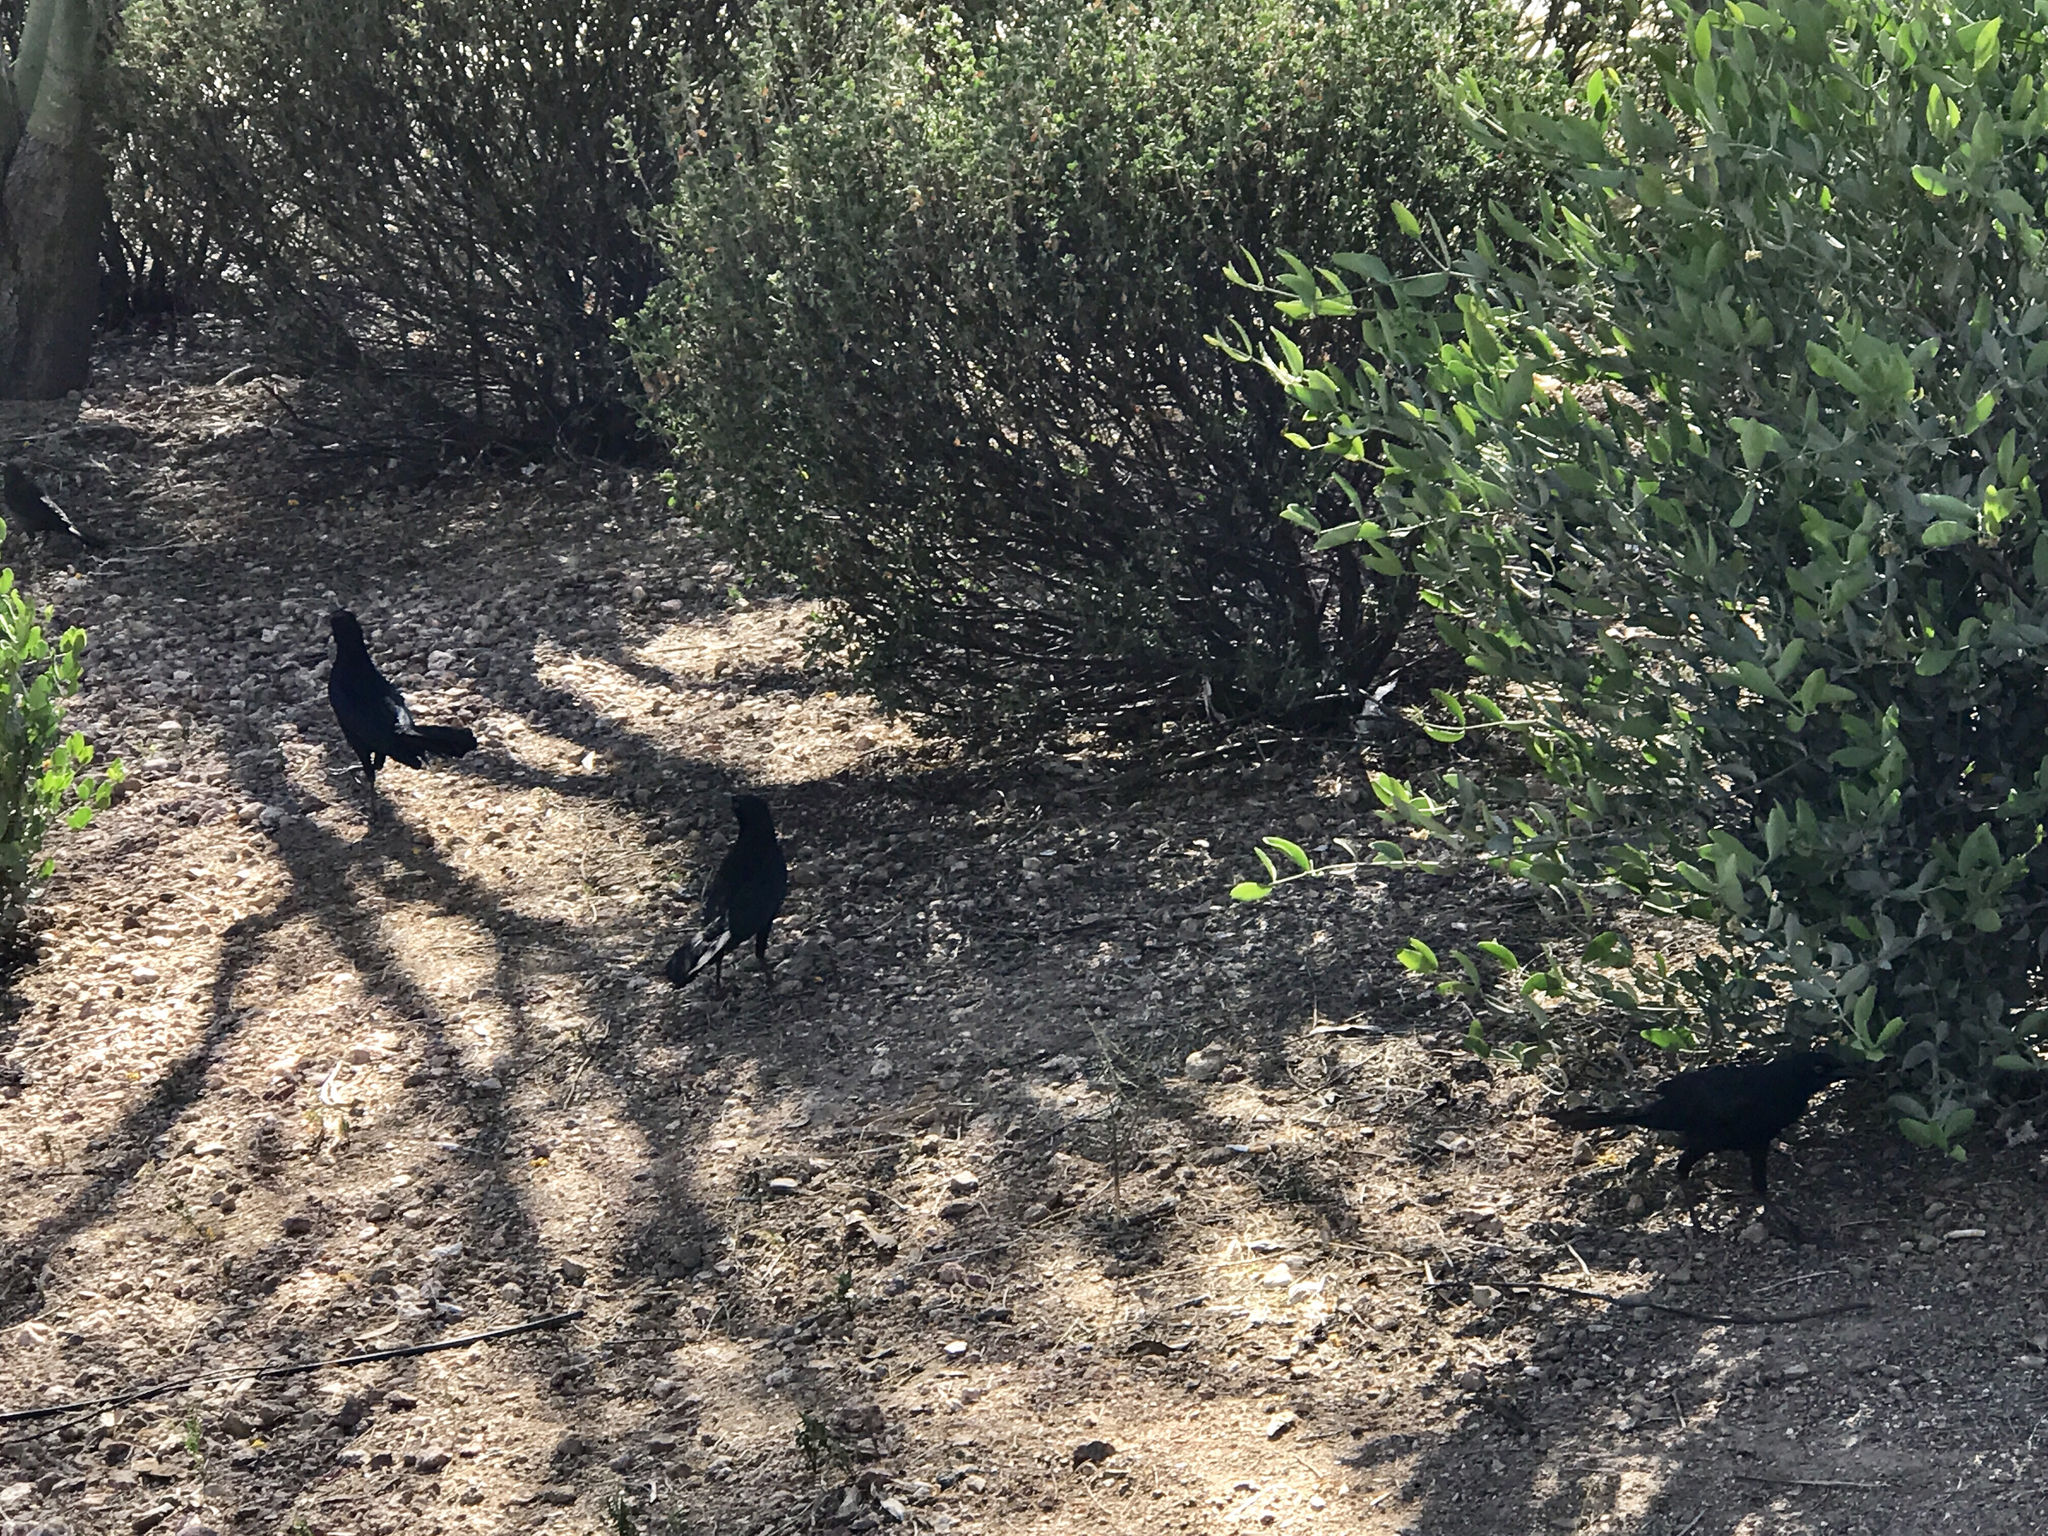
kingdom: Animalia
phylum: Chordata
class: Aves
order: Passeriformes
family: Icteridae
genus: Quiscalus
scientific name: Quiscalus mexicanus
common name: Great-tailed grackle
